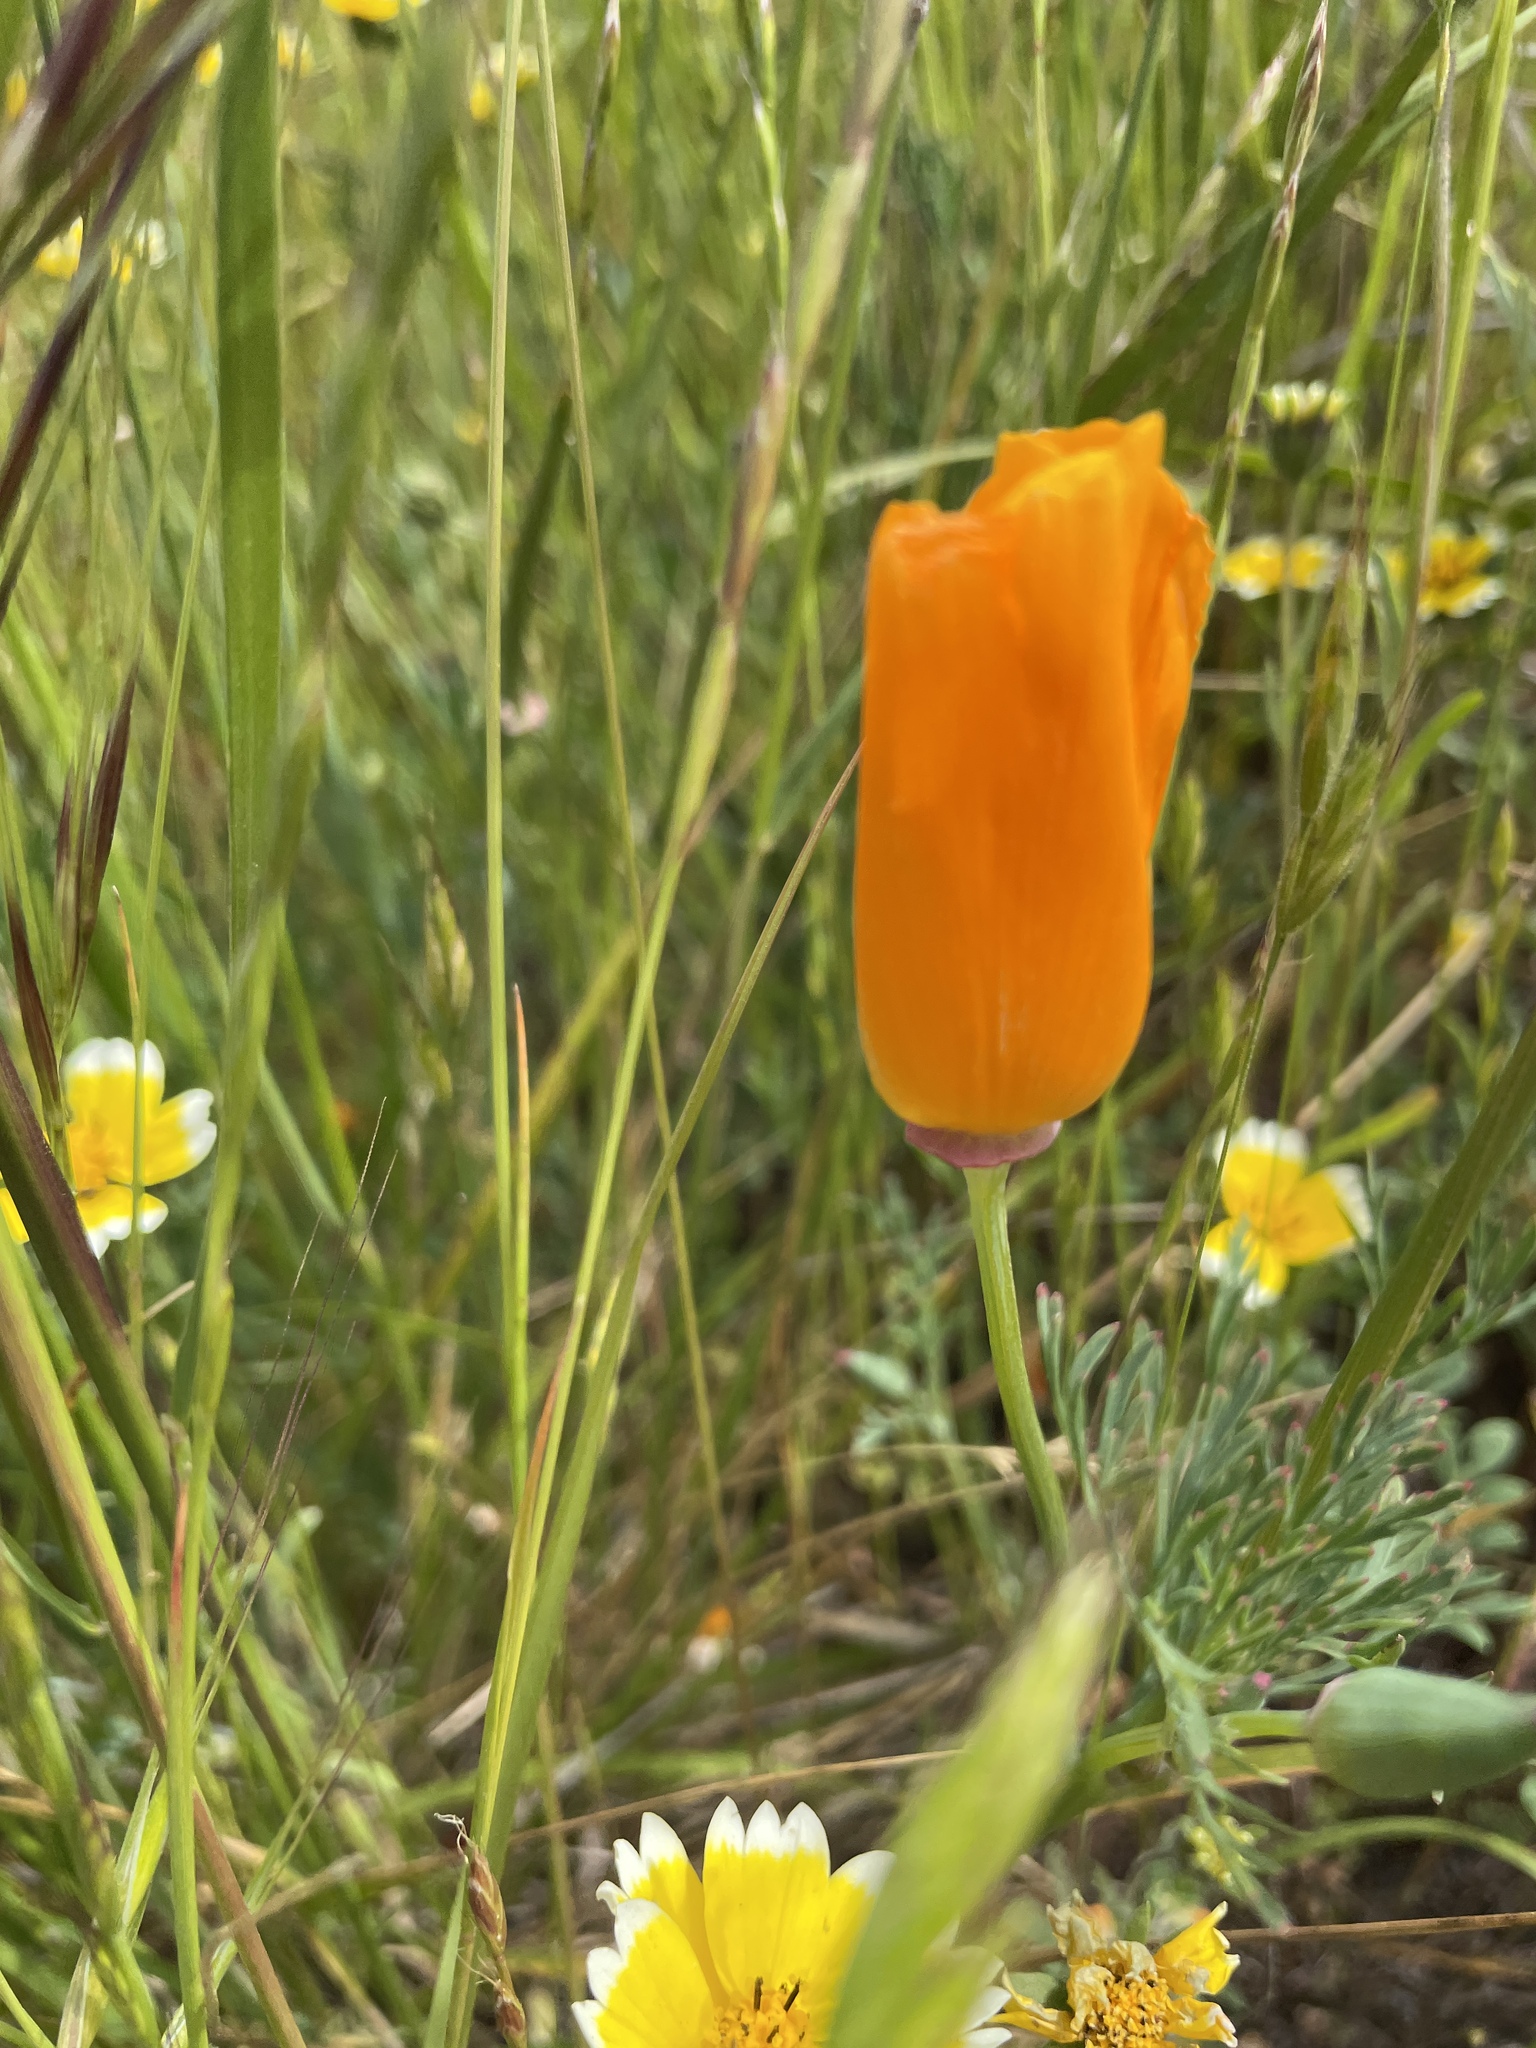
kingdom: Plantae
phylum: Tracheophyta
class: Magnoliopsida
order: Ranunculales
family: Papaveraceae
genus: Eschscholzia
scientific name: Eschscholzia californica
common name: California poppy
